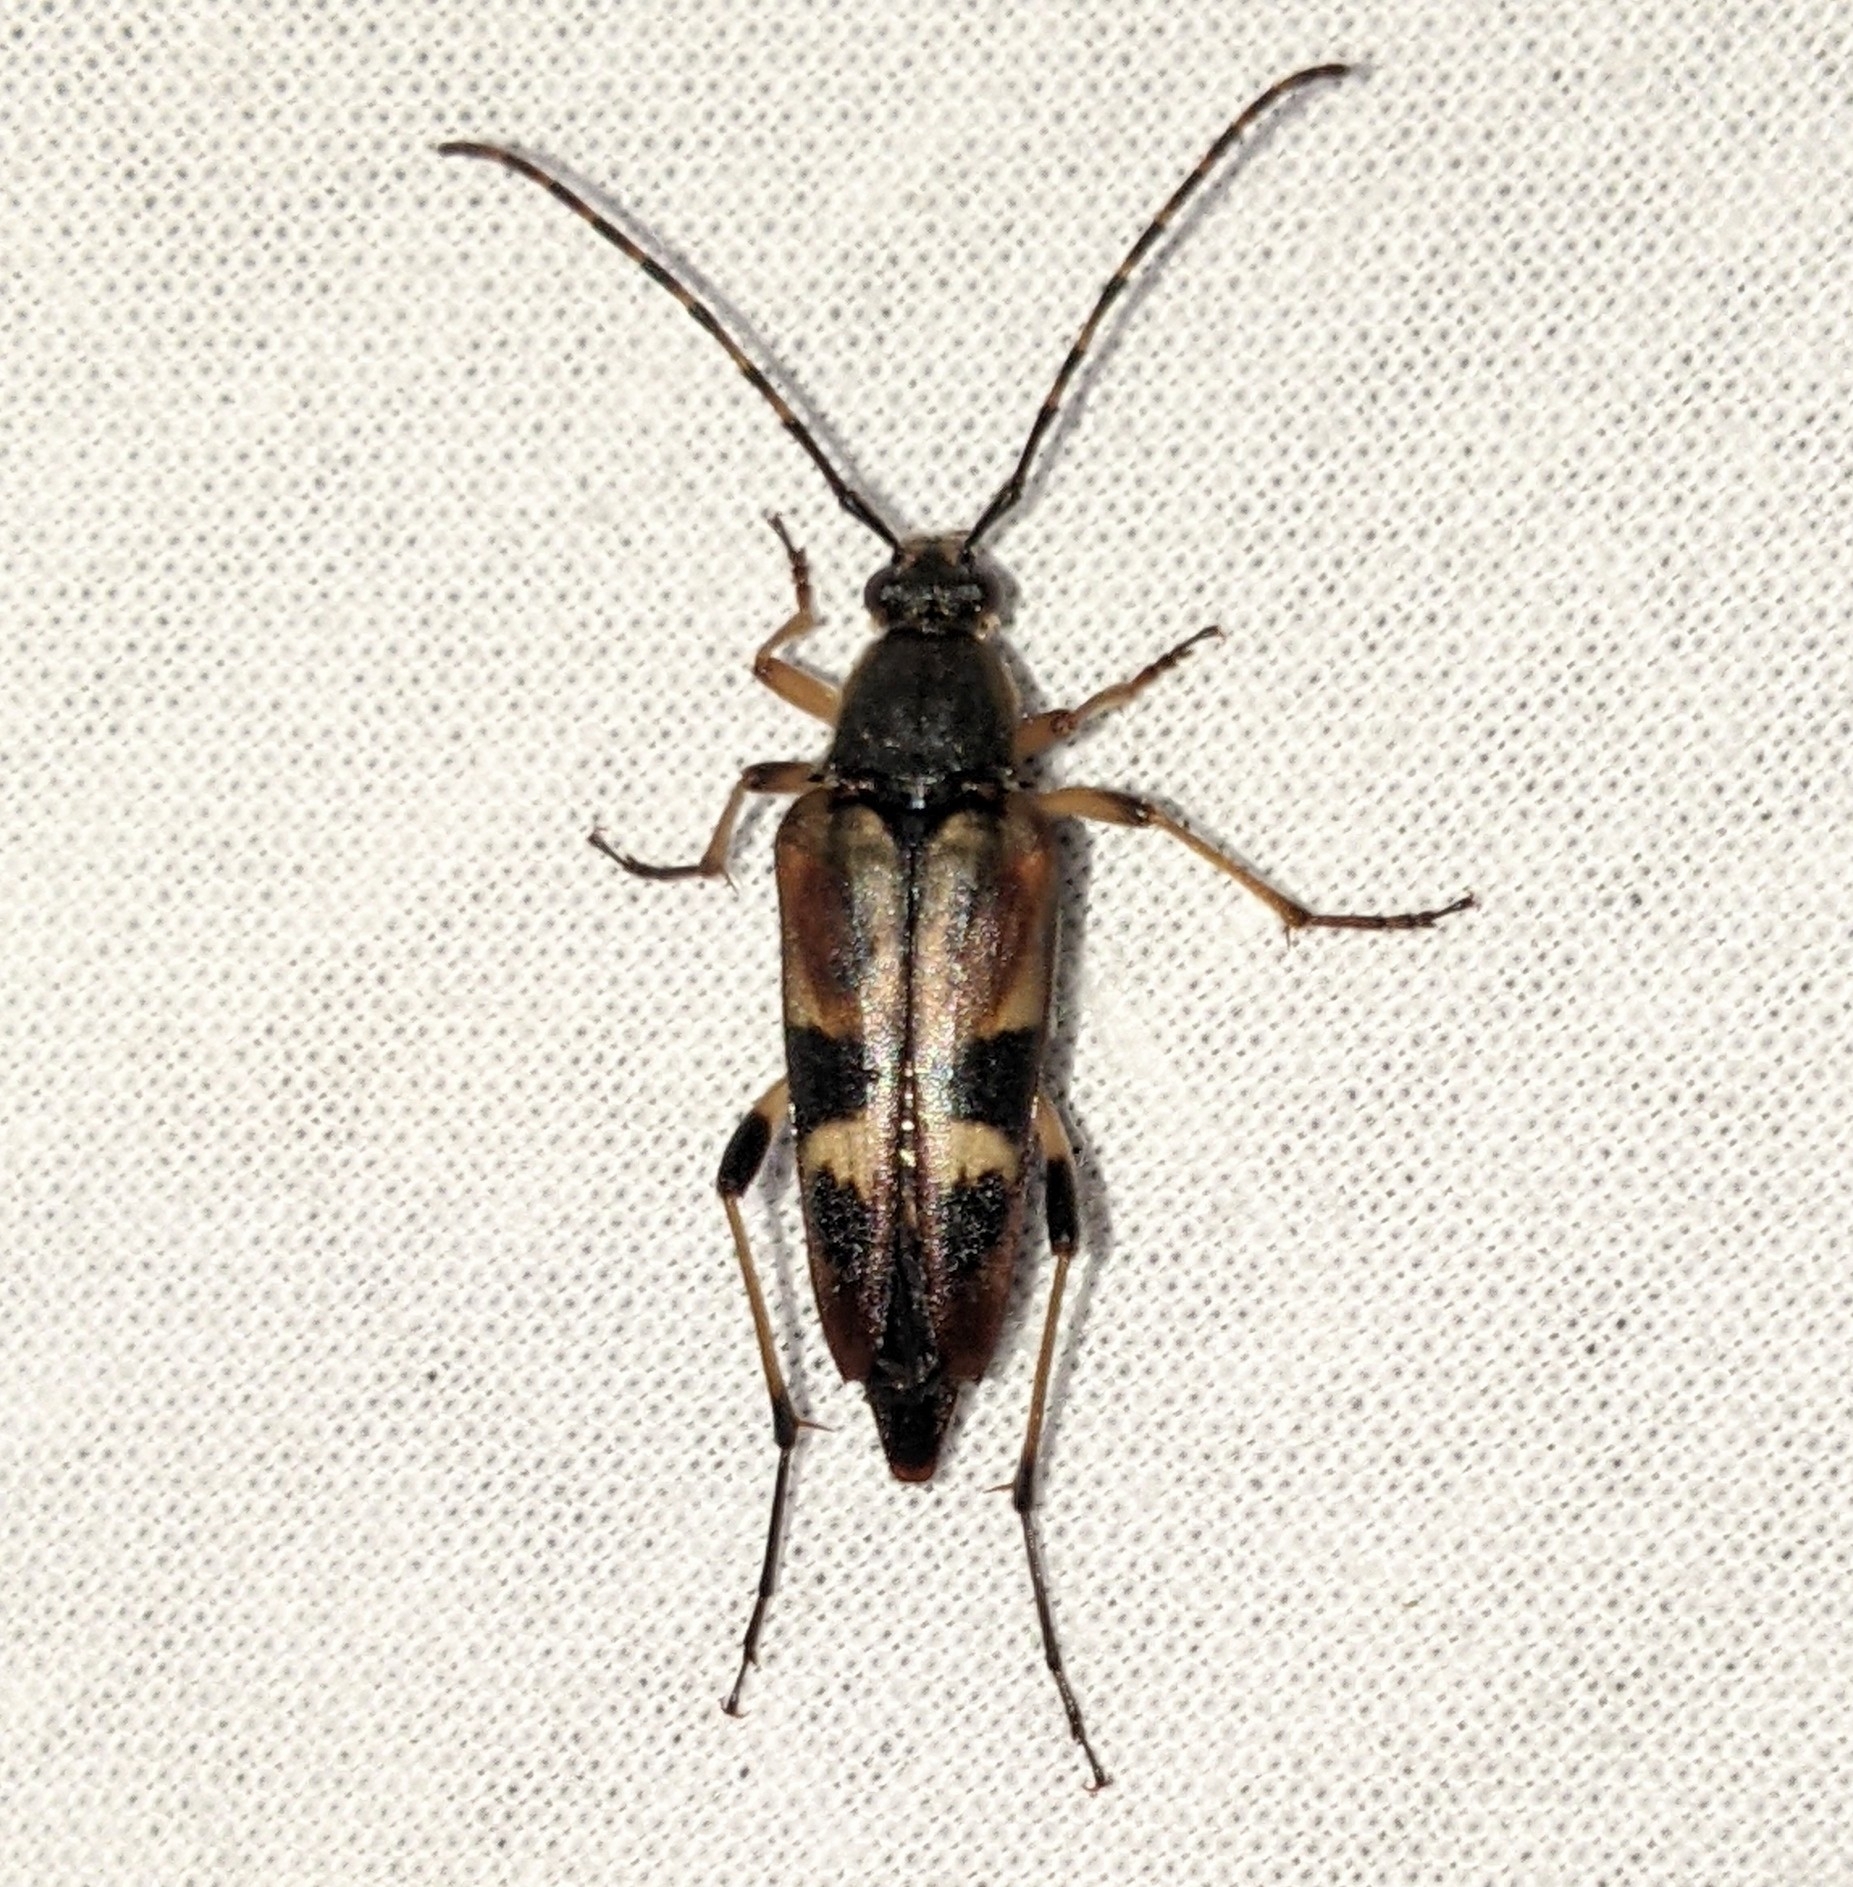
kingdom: Animalia
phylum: Arthropoda
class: Insecta
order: Coleoptera
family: Cerambycidae
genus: Etorofus
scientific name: Etorofus obliteratus
